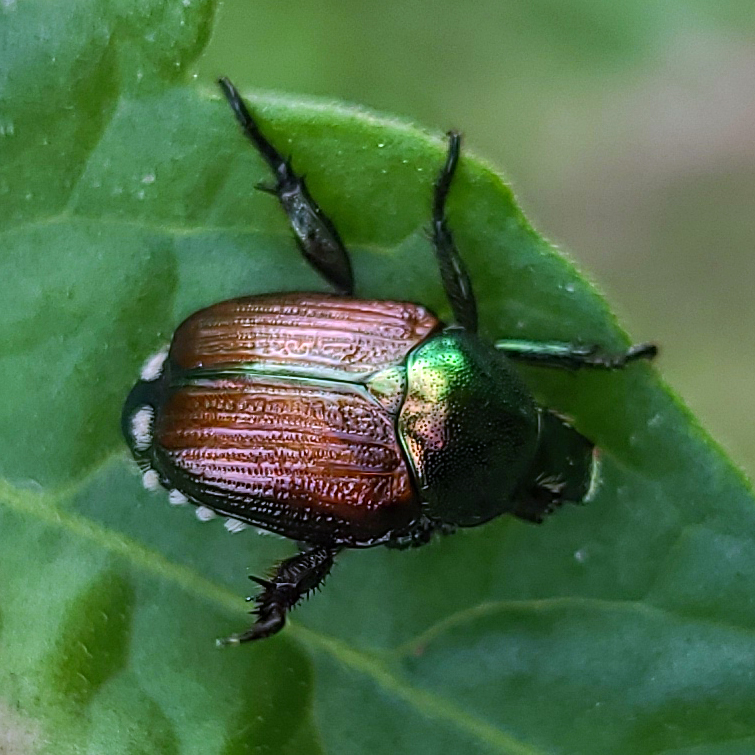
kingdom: Animalia
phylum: Arthropoda
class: Insecta
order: Coleoptera
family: Scarabaeidae
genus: Popillia
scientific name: Popillia japonica
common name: Japanese beetle
